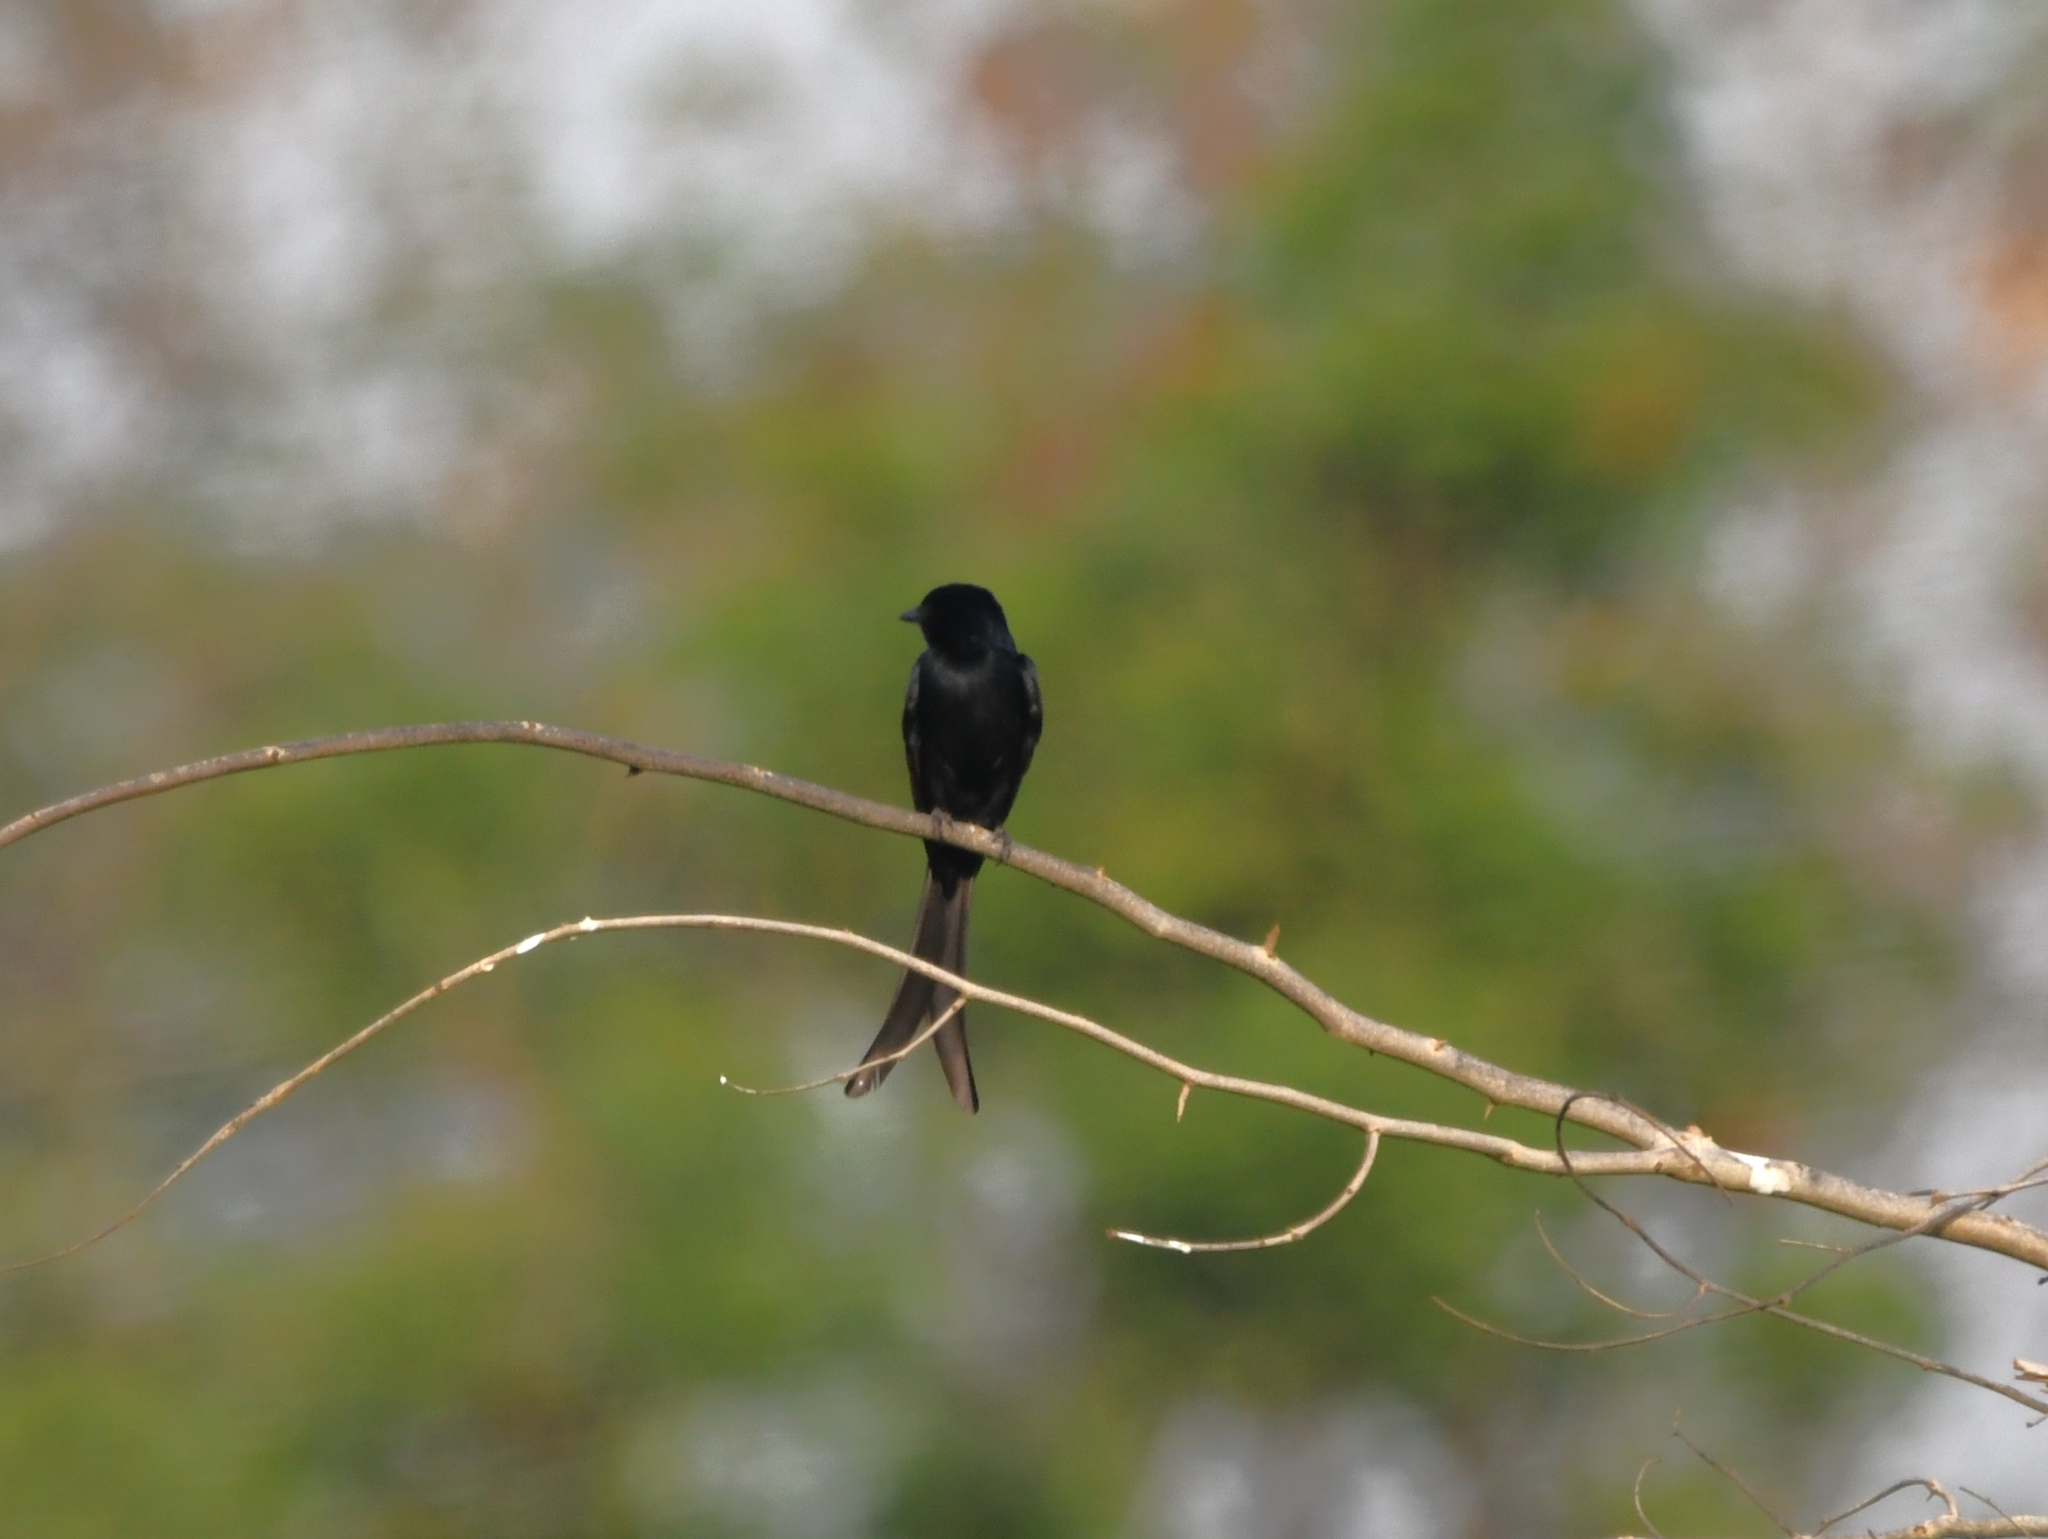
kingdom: Animalia
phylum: Chordata
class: Aves
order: Passeriformes
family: Dicruridae
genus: Dicrurus
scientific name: Dicrurus macrocercus
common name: Black drongo
